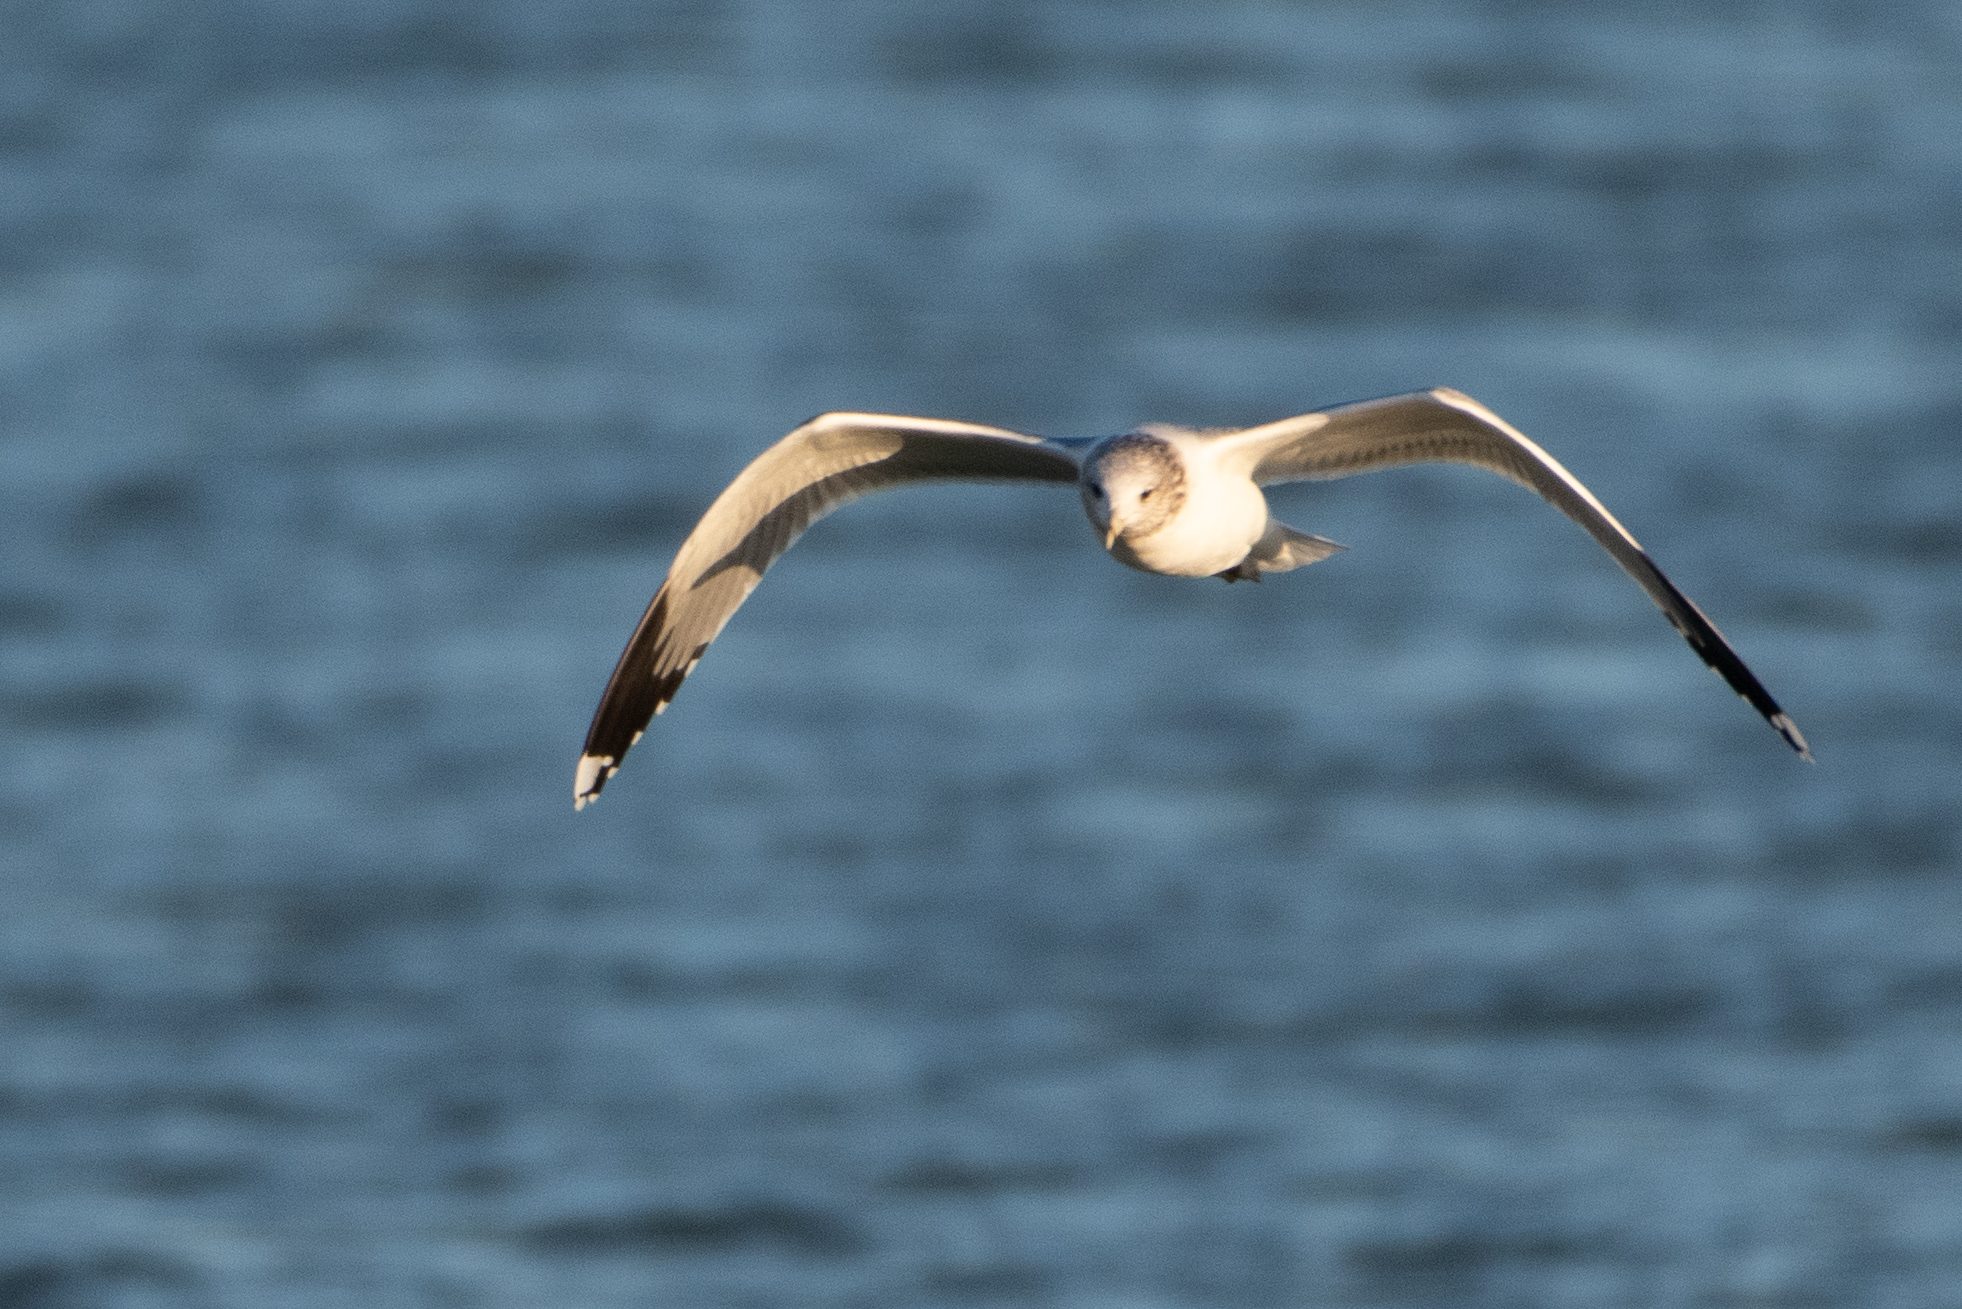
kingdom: Animalia
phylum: Chordata
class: Aves
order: Charadriiformes
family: Laridae
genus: Larus
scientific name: Larus californicus
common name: California gull
